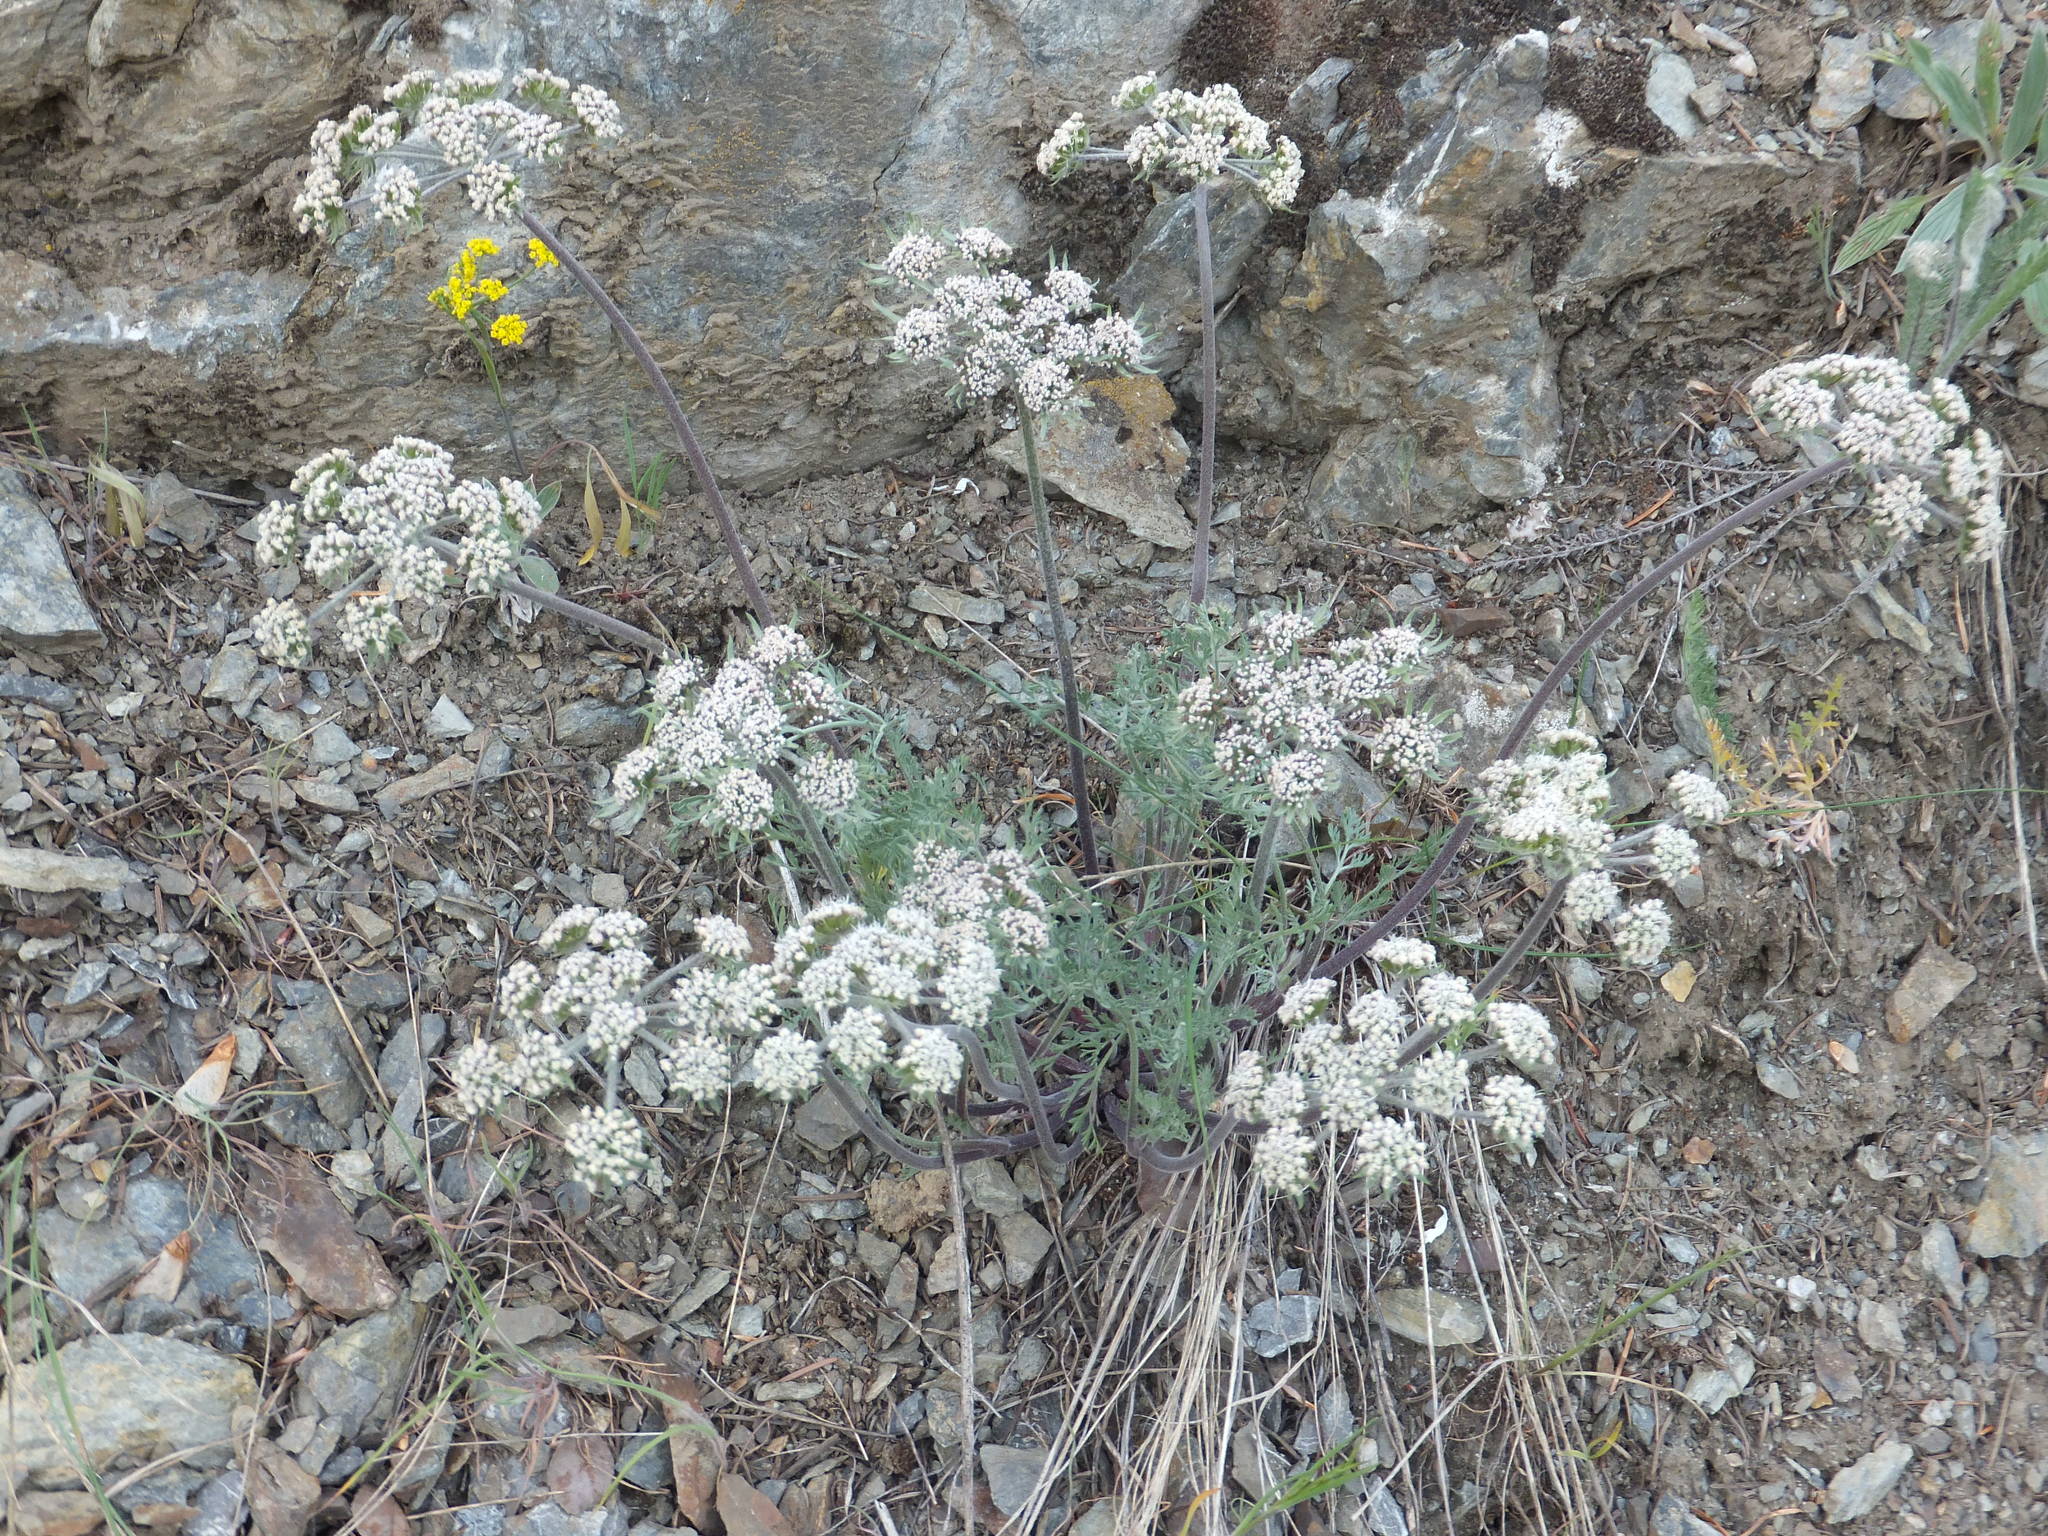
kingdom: Plantae
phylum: Tracheophyta
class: Magnoliopsida
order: Apiales
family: Apiaceae
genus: Lomatium
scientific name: Lomatium macrocarpum
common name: Big-seed biscuitroot
